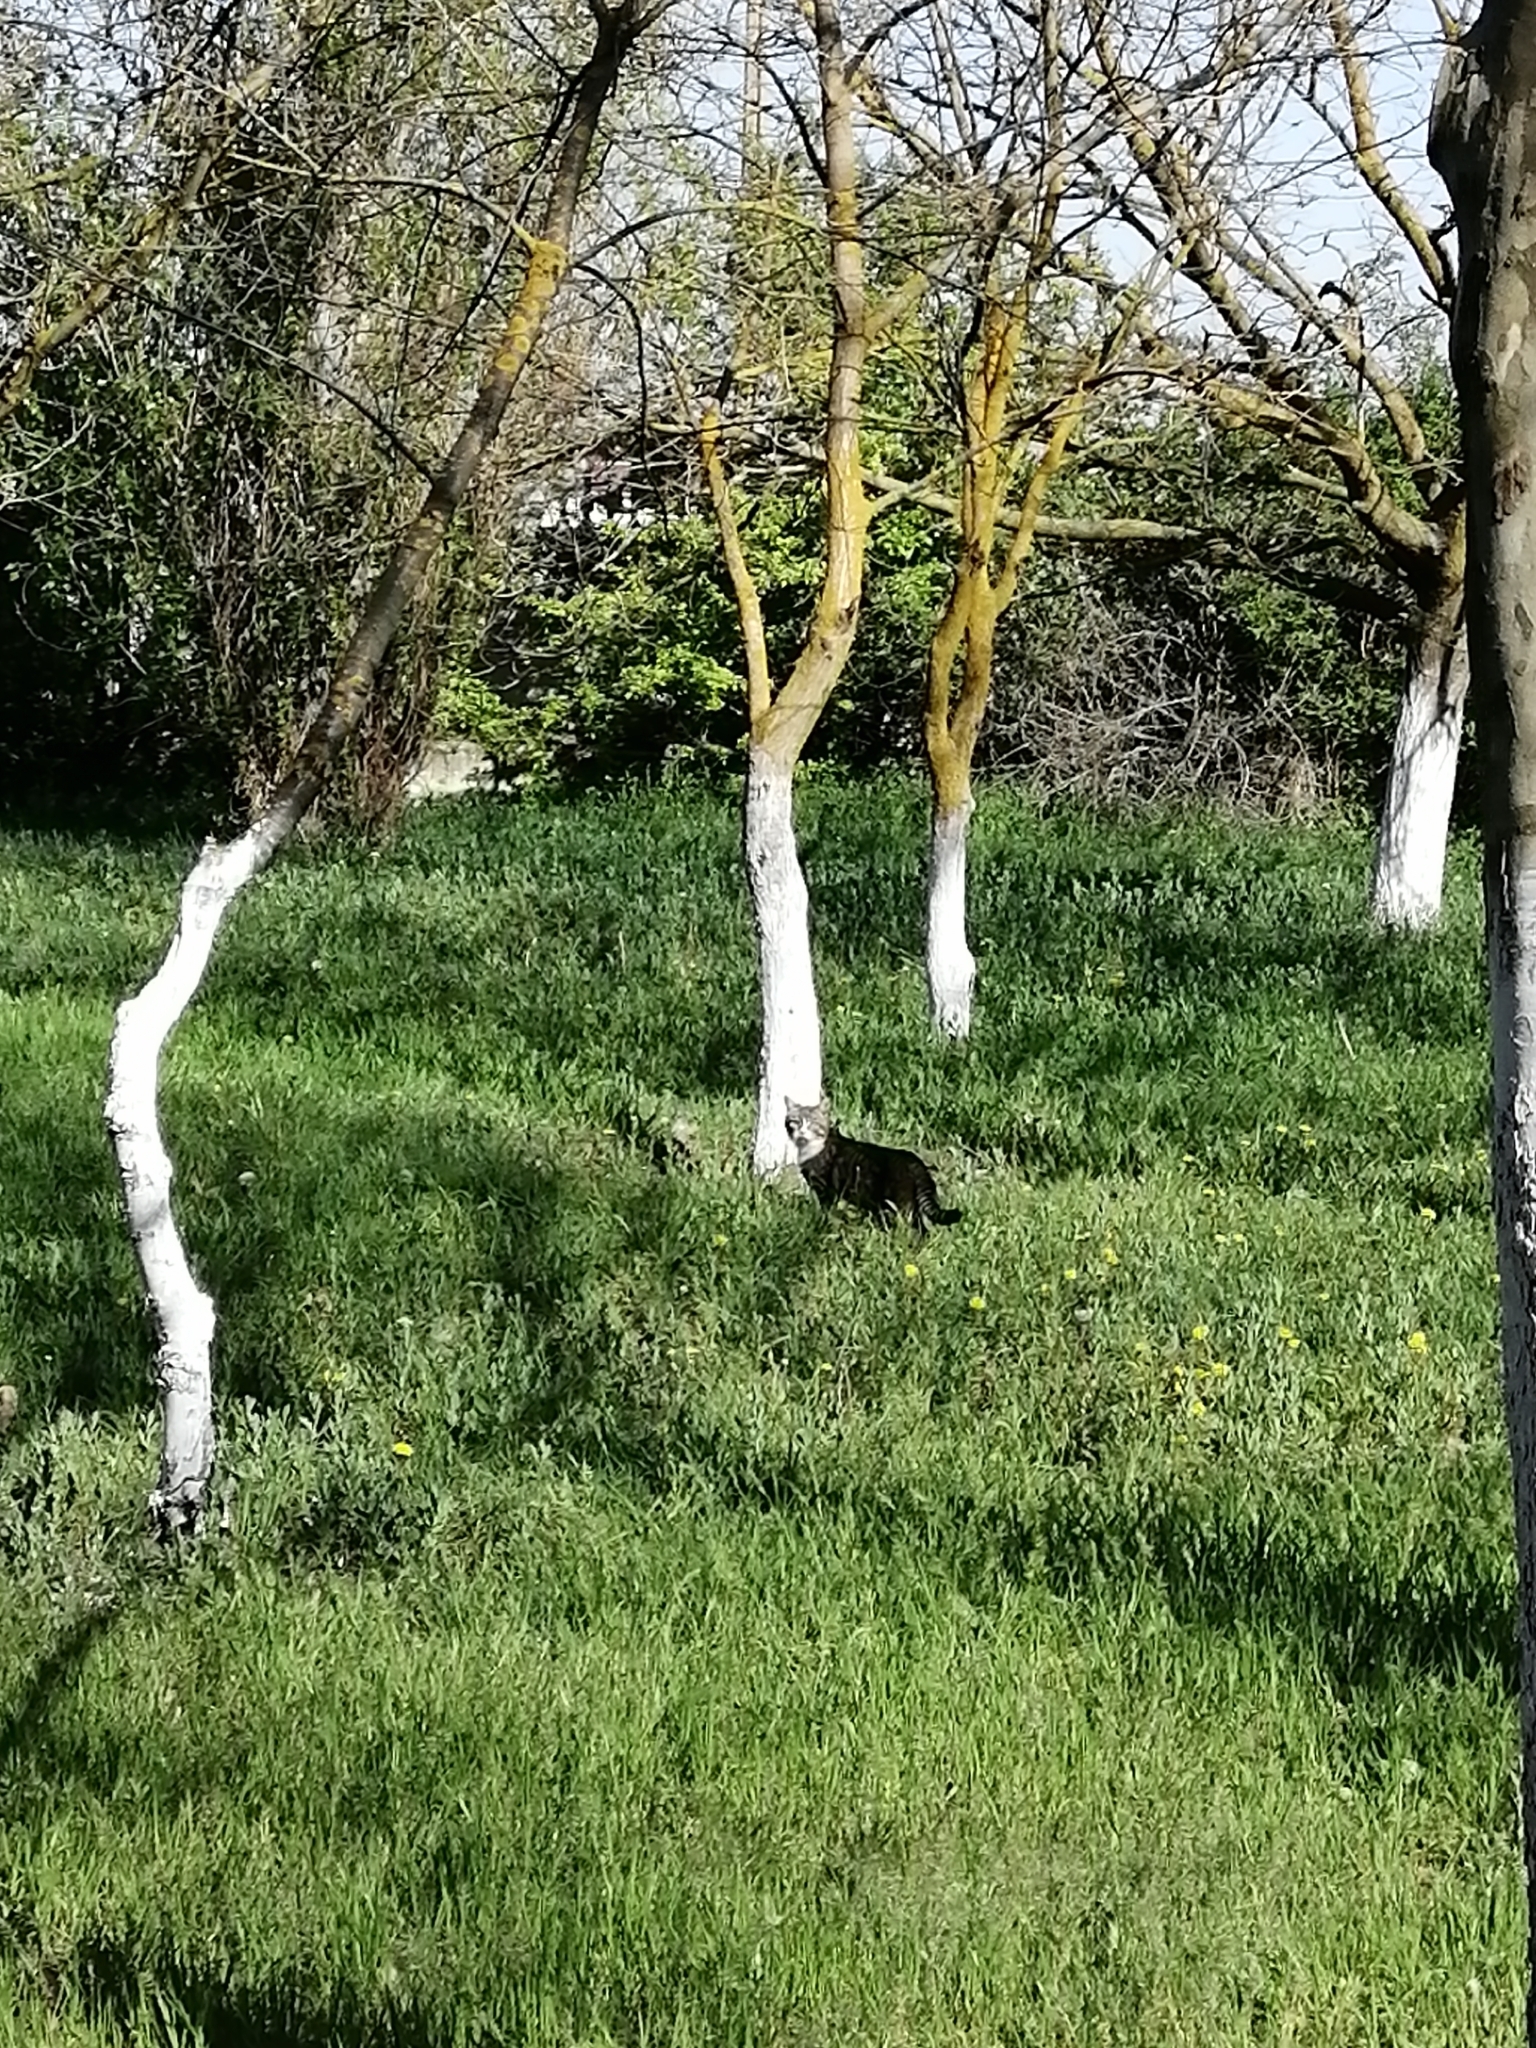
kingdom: Animalia
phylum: Chordata
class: Mammalia
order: Carnivora
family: Felidae
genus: Felis
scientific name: Felis catus
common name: Domestic cat
